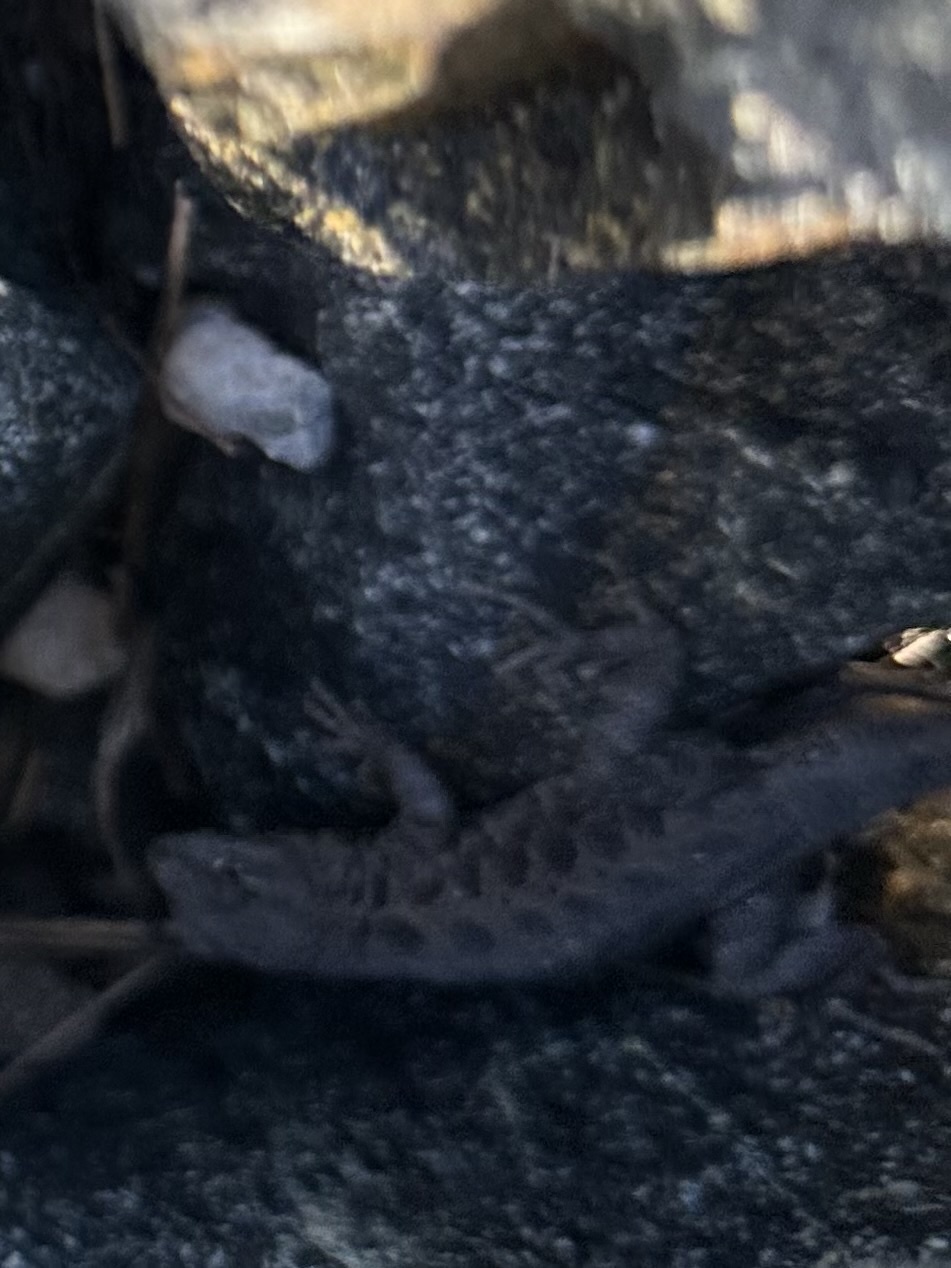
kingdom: Animalia
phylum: Chordata
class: Squamata
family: Phrynosomatidae
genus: Uta
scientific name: Uta stansburiana
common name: Side-blotched lizard
